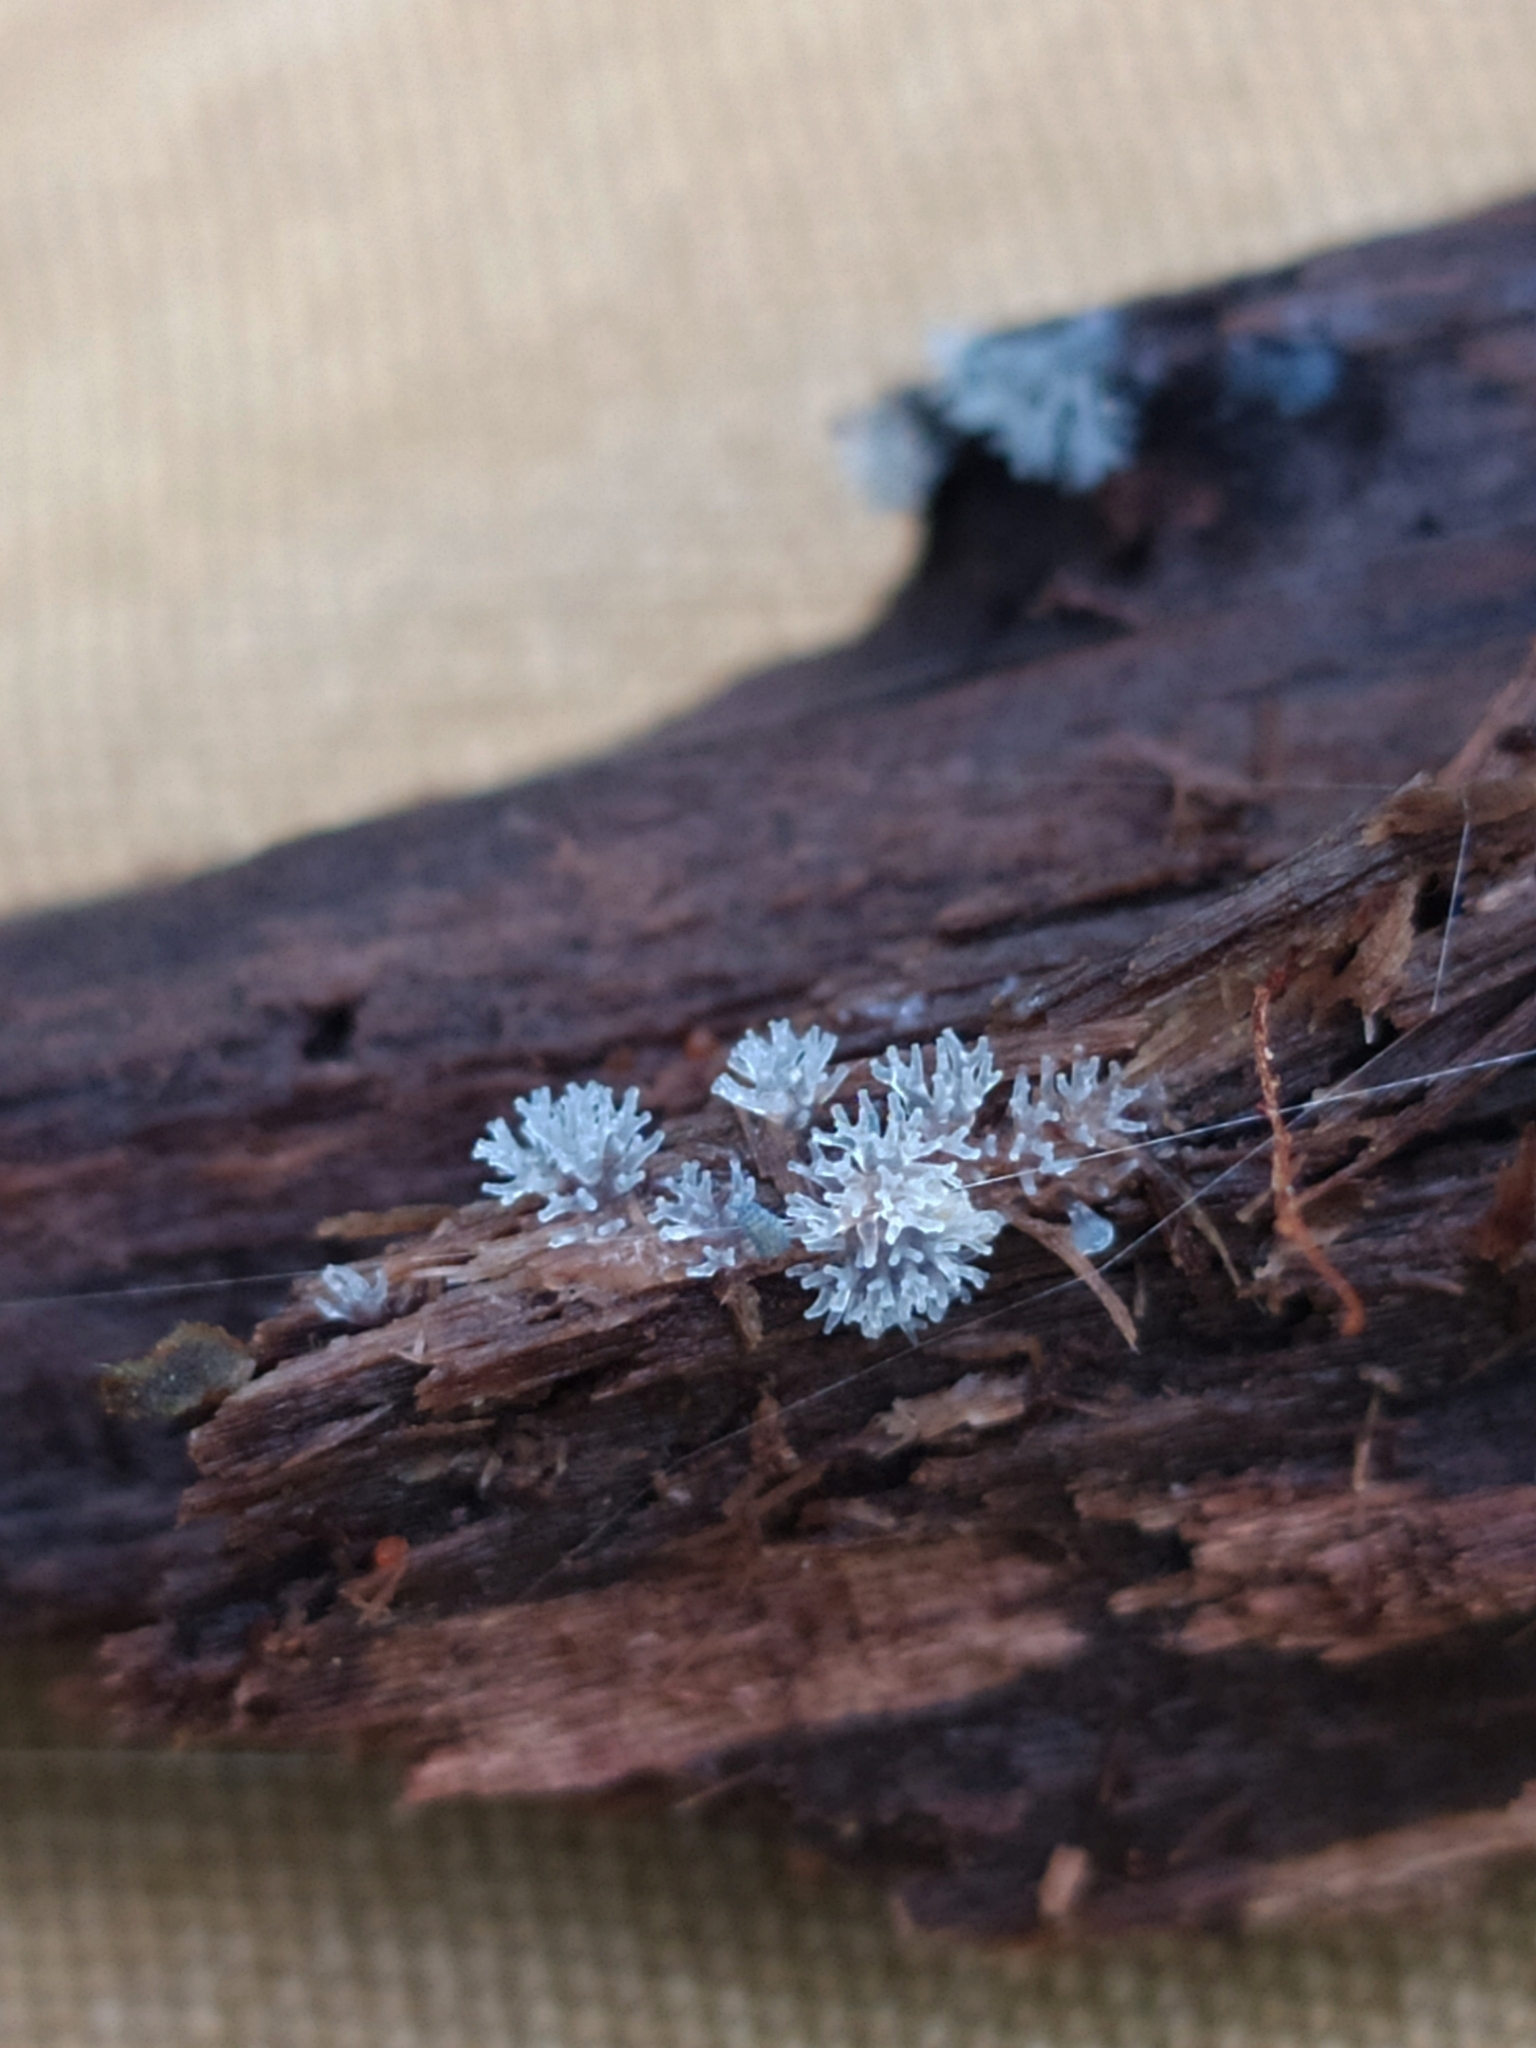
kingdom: Protozoa
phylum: Mycetozoa
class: Protosteliomycetes
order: Ceratiomyxales
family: Ceratiomyxaceae
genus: Ceratiomyxa
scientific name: Ceratiomyxa fruticulosa
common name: Honeycomb coral slime mold
